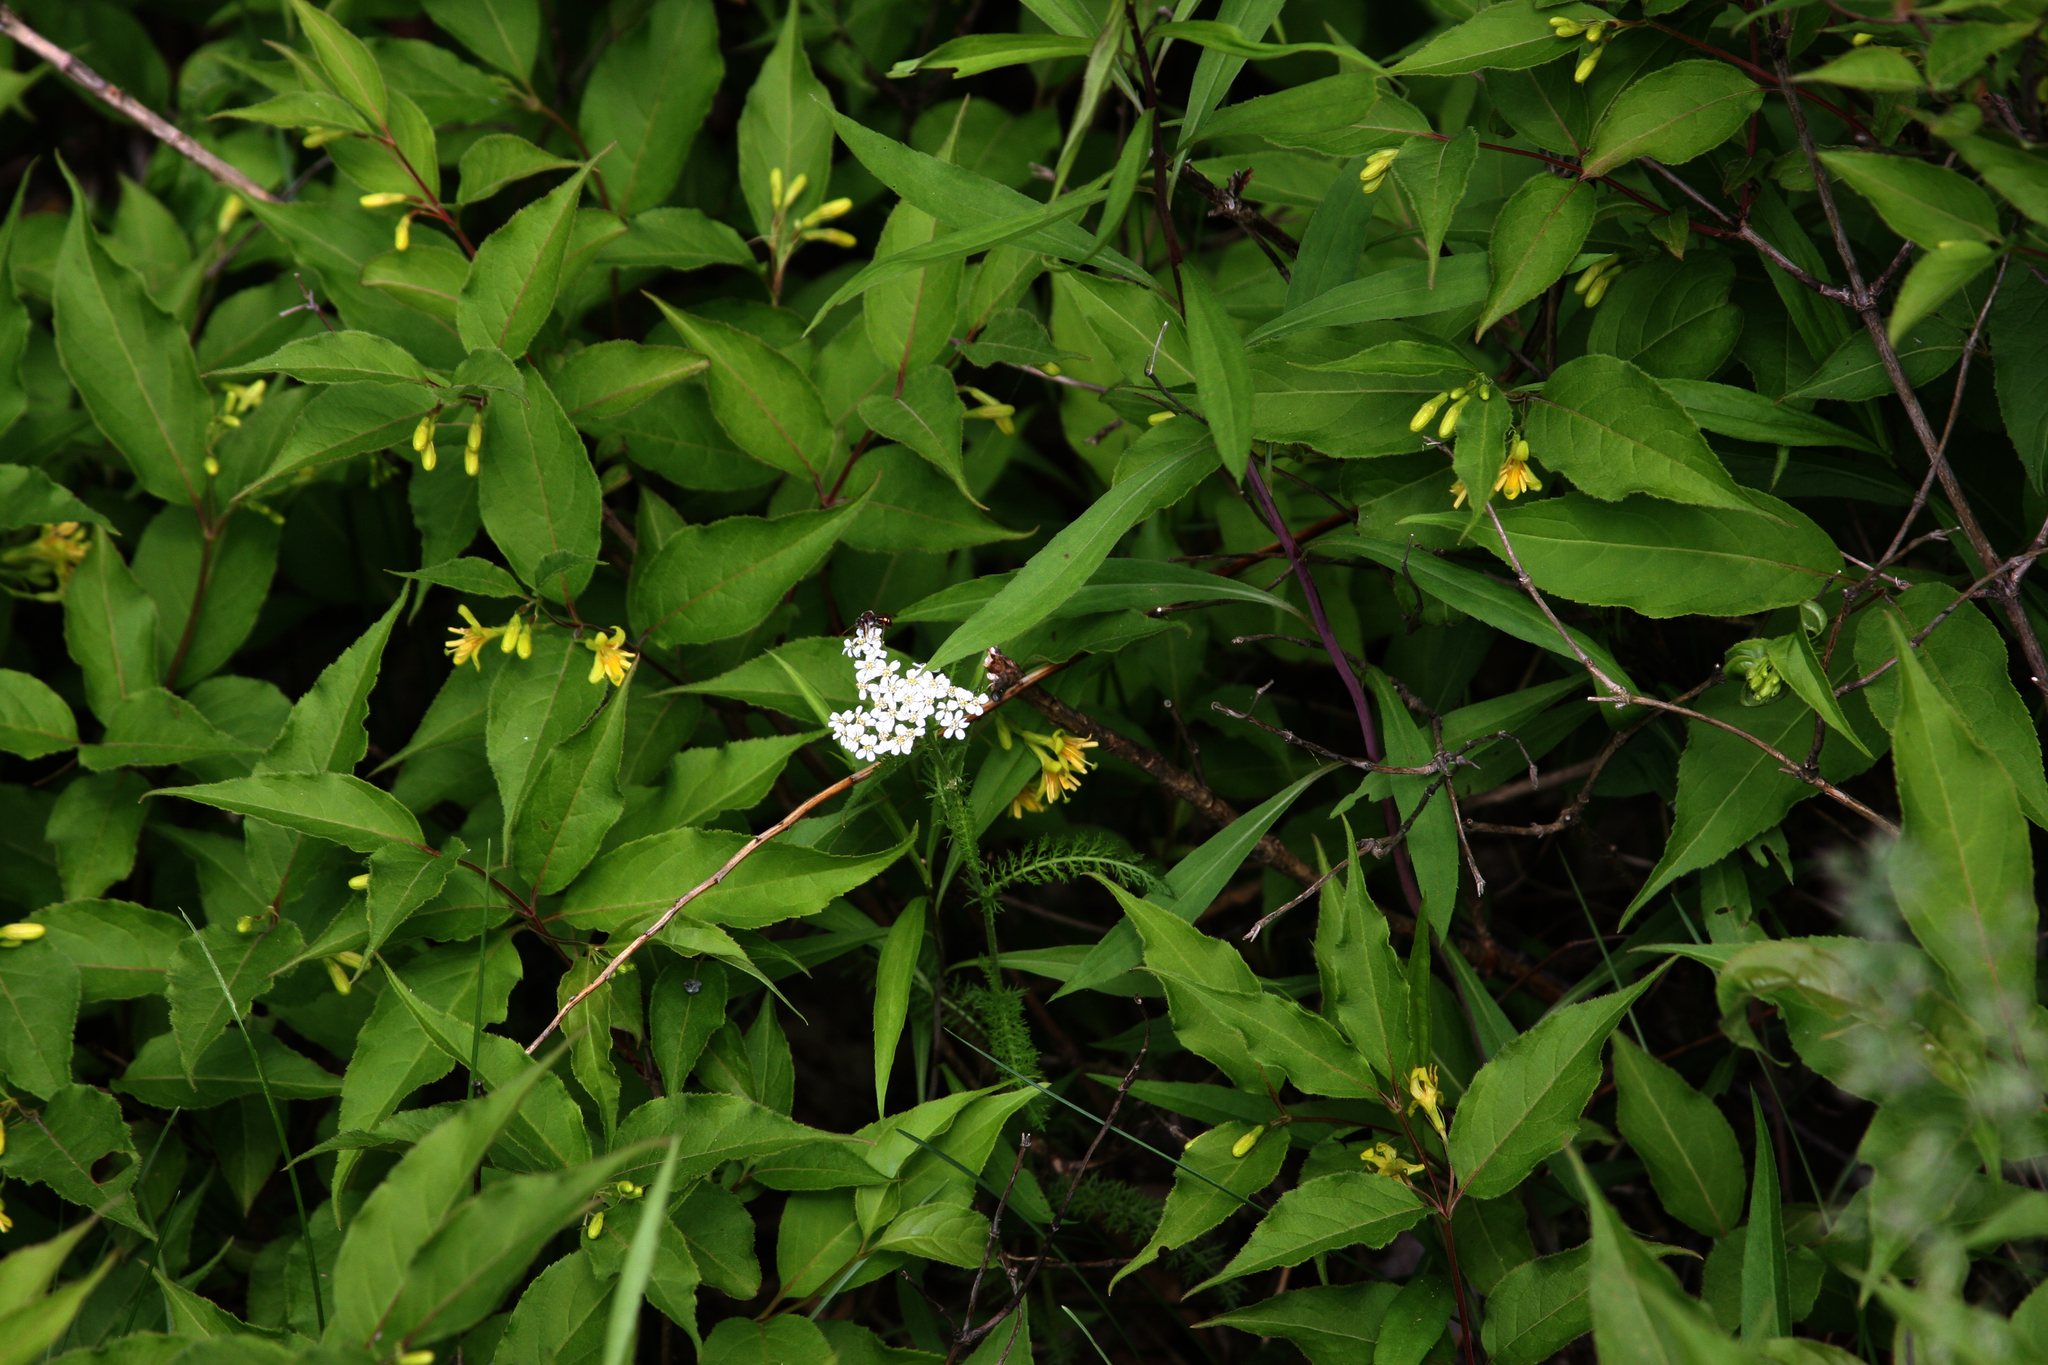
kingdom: Plantae
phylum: Tracheophyta
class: Magnoliopsida
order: Asterales
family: Asteraceae
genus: Achillea
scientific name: Achillea millefolium
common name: Yarrow
